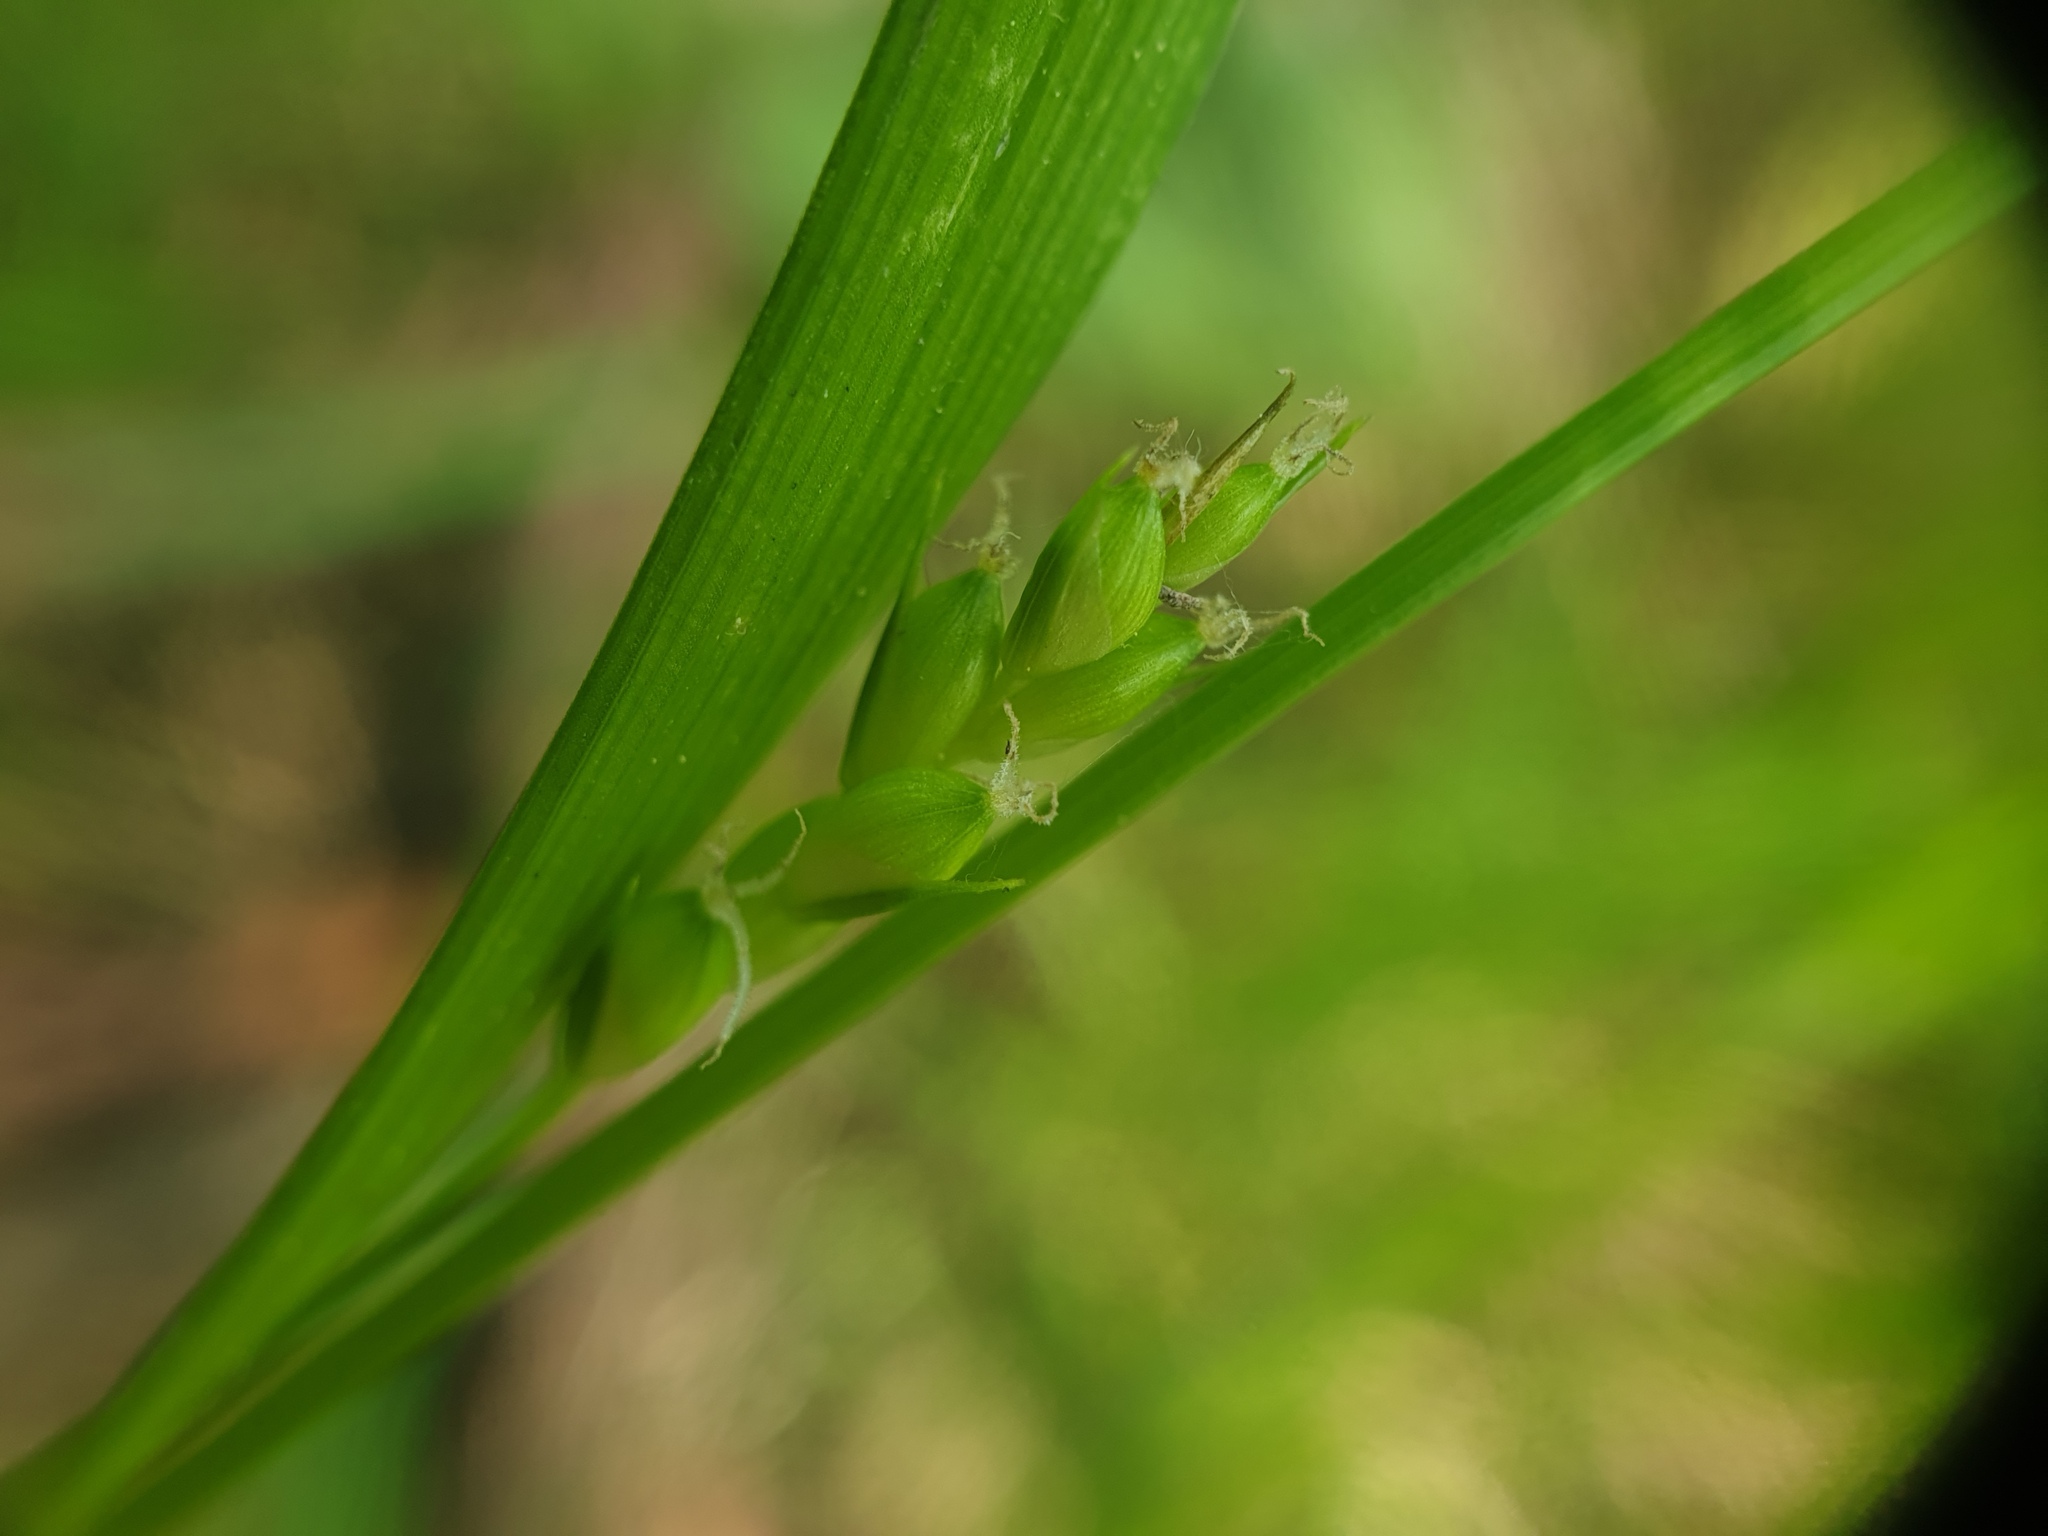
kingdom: Plantae
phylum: Tracheophyta
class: Liliopsida
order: Poales
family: Cyperaceae
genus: Carex
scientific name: Carex grisea
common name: Eastern narrow-leaved sedge
